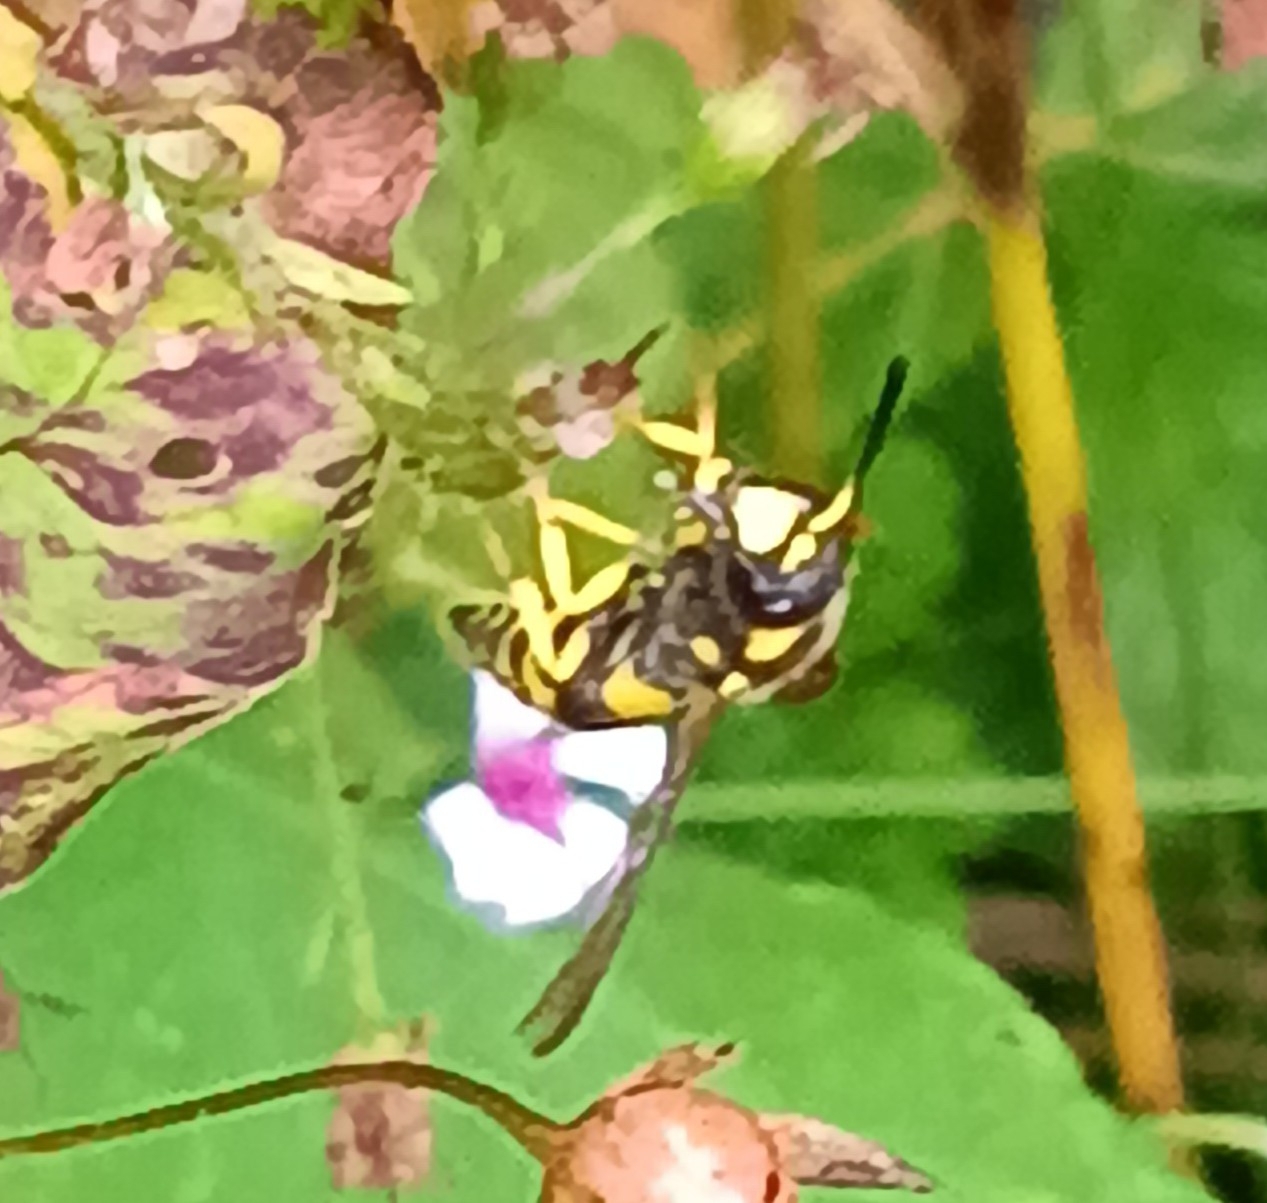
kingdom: Animalia
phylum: Arthropoda
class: Insecta
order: Hymenoptera
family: Vespidae
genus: Ancistrocerus
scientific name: Ancistrocerus gazella
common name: European tube wasp
